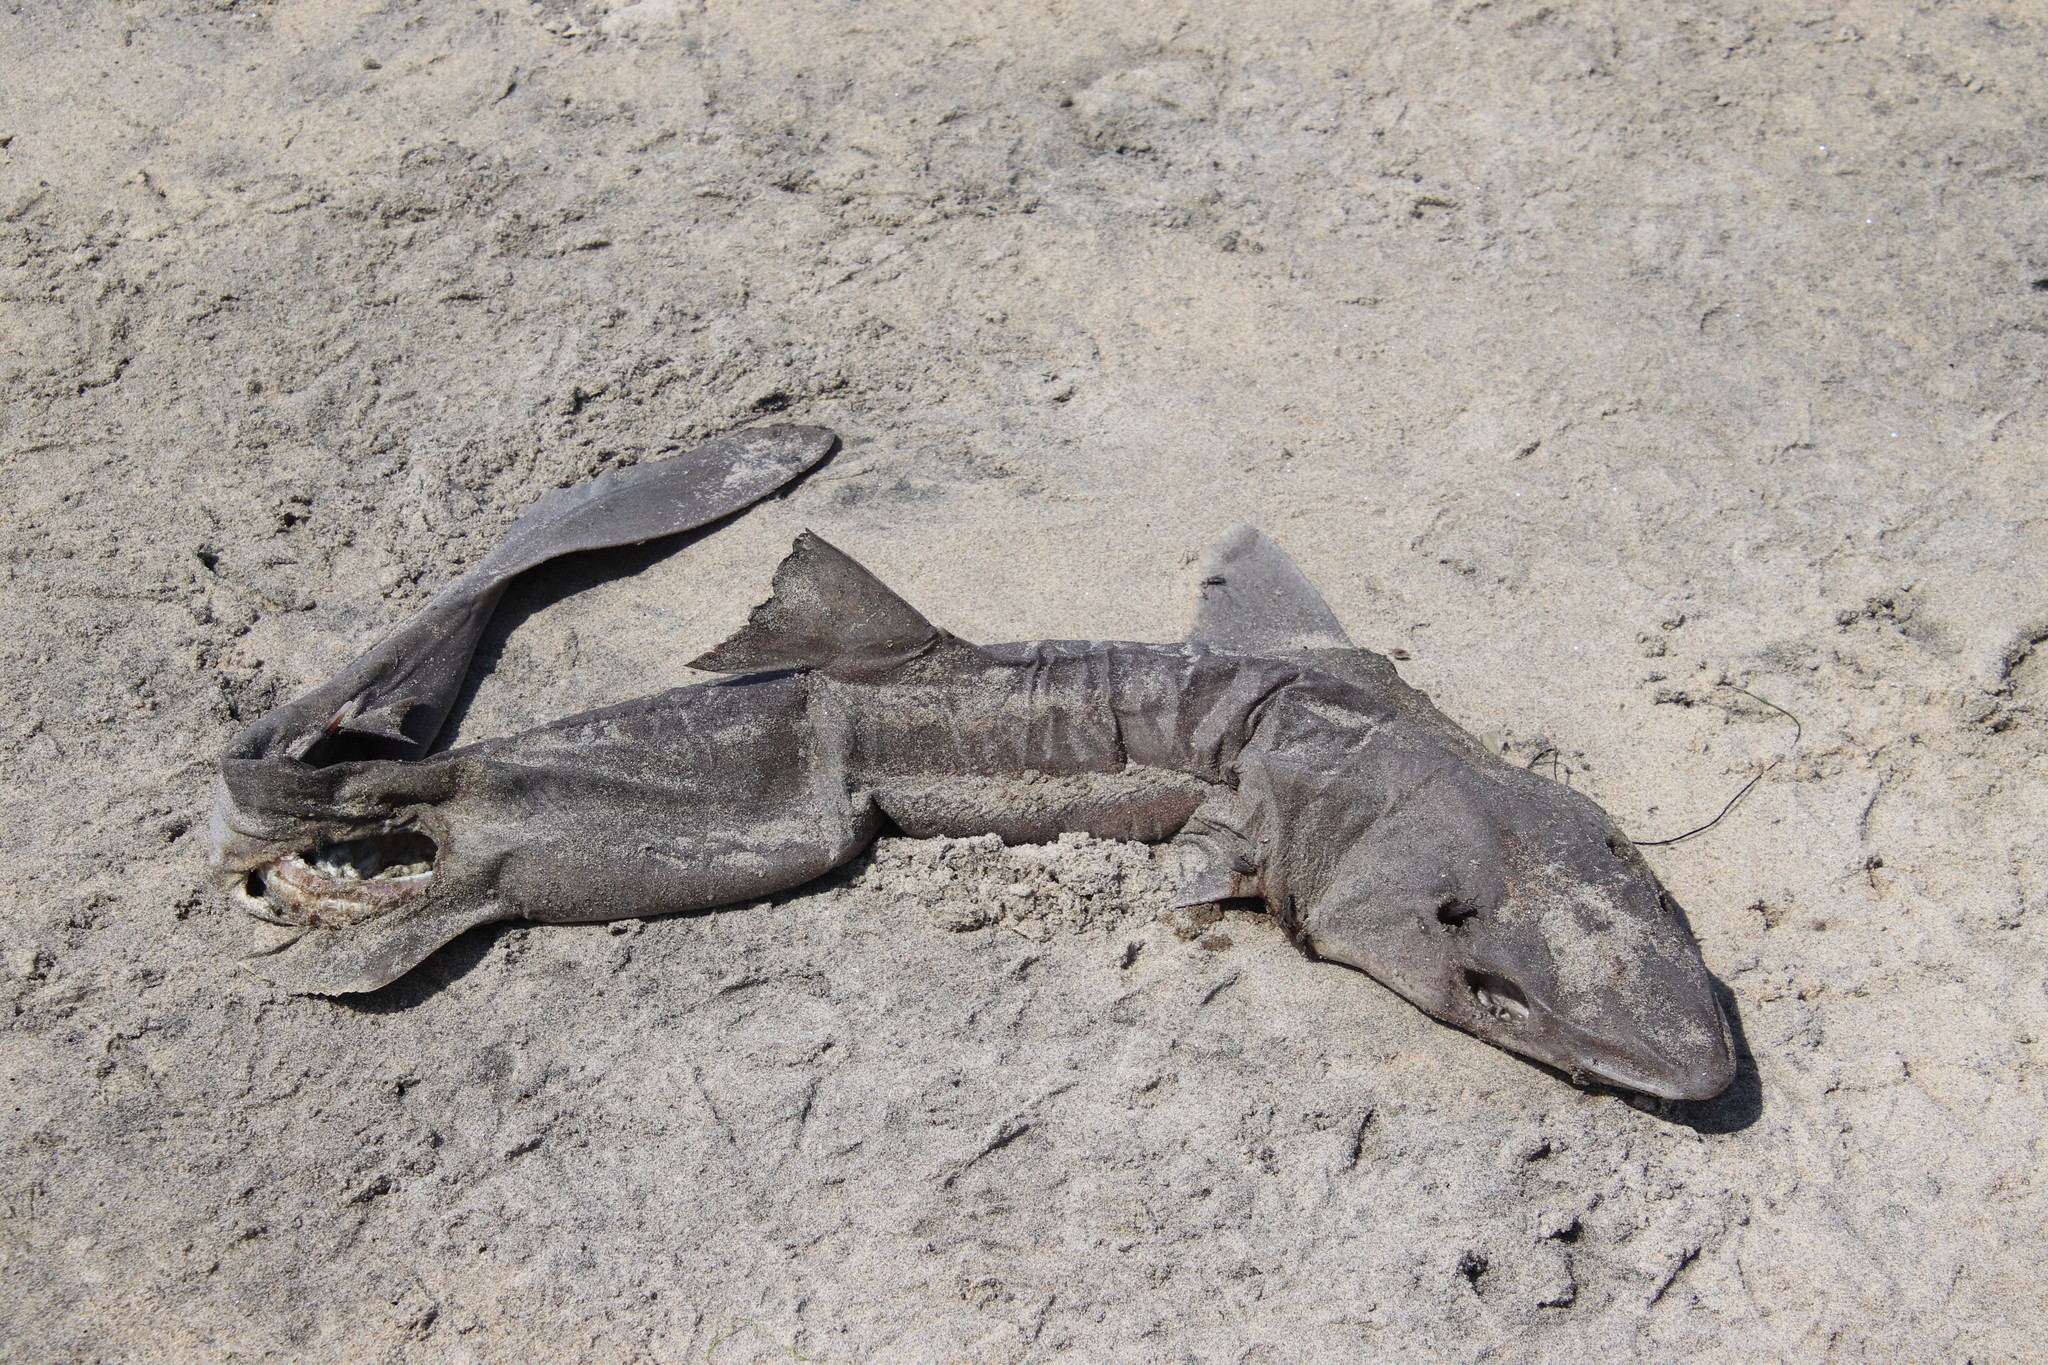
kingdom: Animalia
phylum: Chordata
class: Elasmobranchii
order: Squaliformes
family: Squalidae
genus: Squalus
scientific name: Squalus suckleyi
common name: Spiny dogfish
